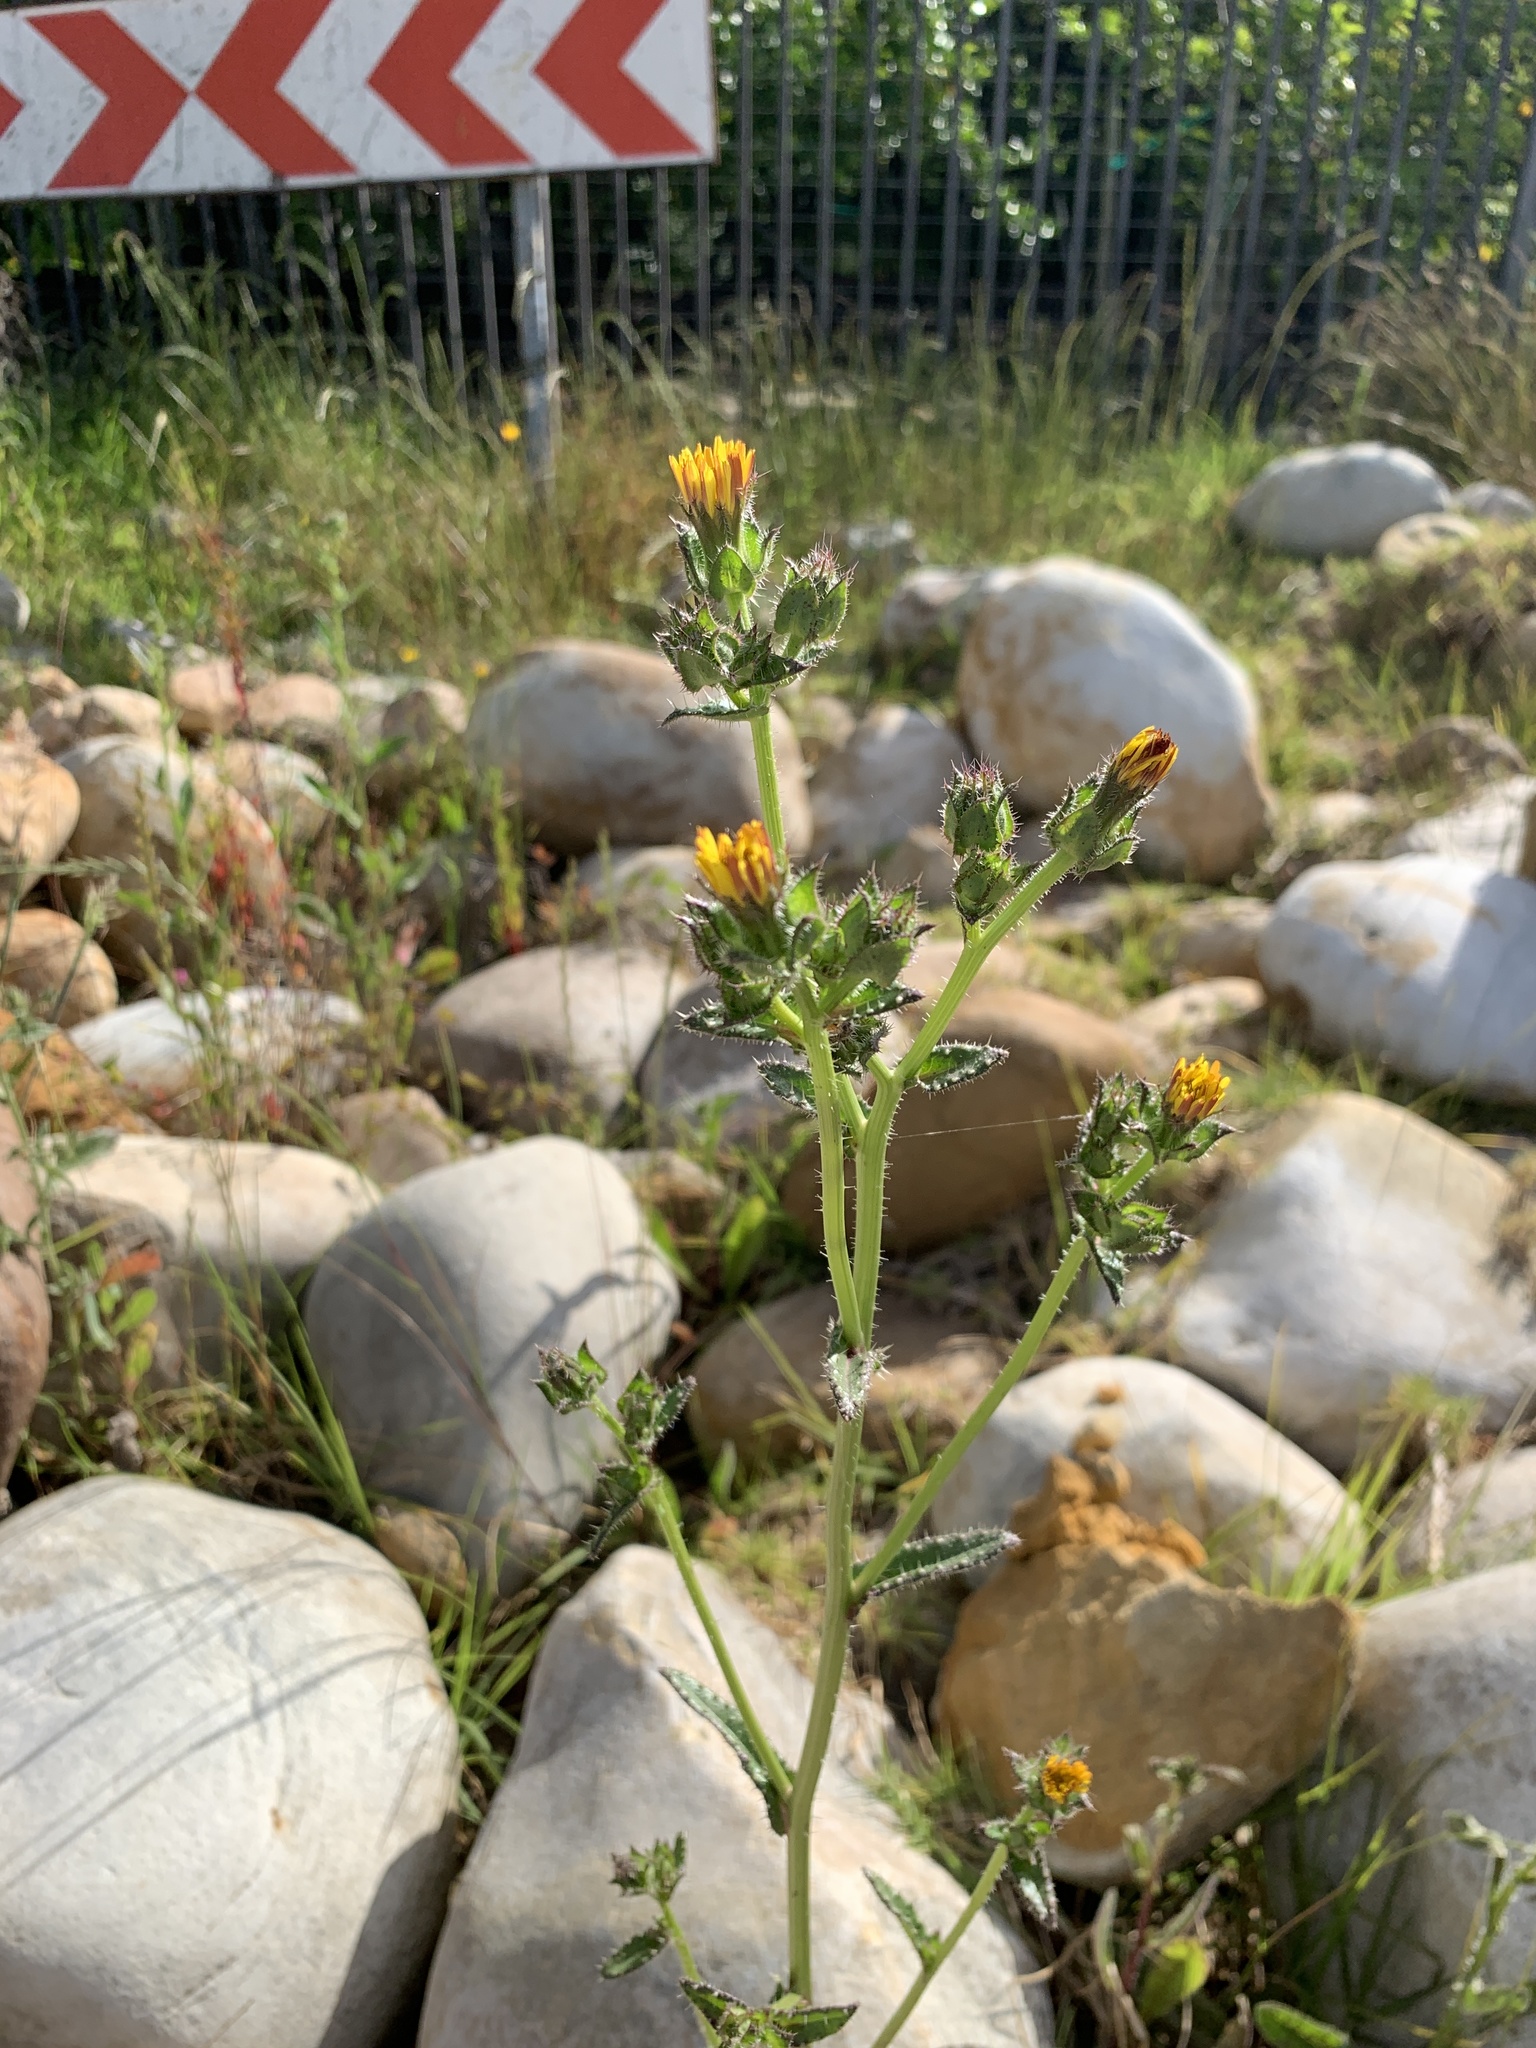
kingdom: Plantae
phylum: Tracheophyta
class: Magnoliopsida
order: Asterales
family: Asteraceae
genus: Helminthotheca
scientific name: Helminthotheca echioides
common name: Ox-tongue
